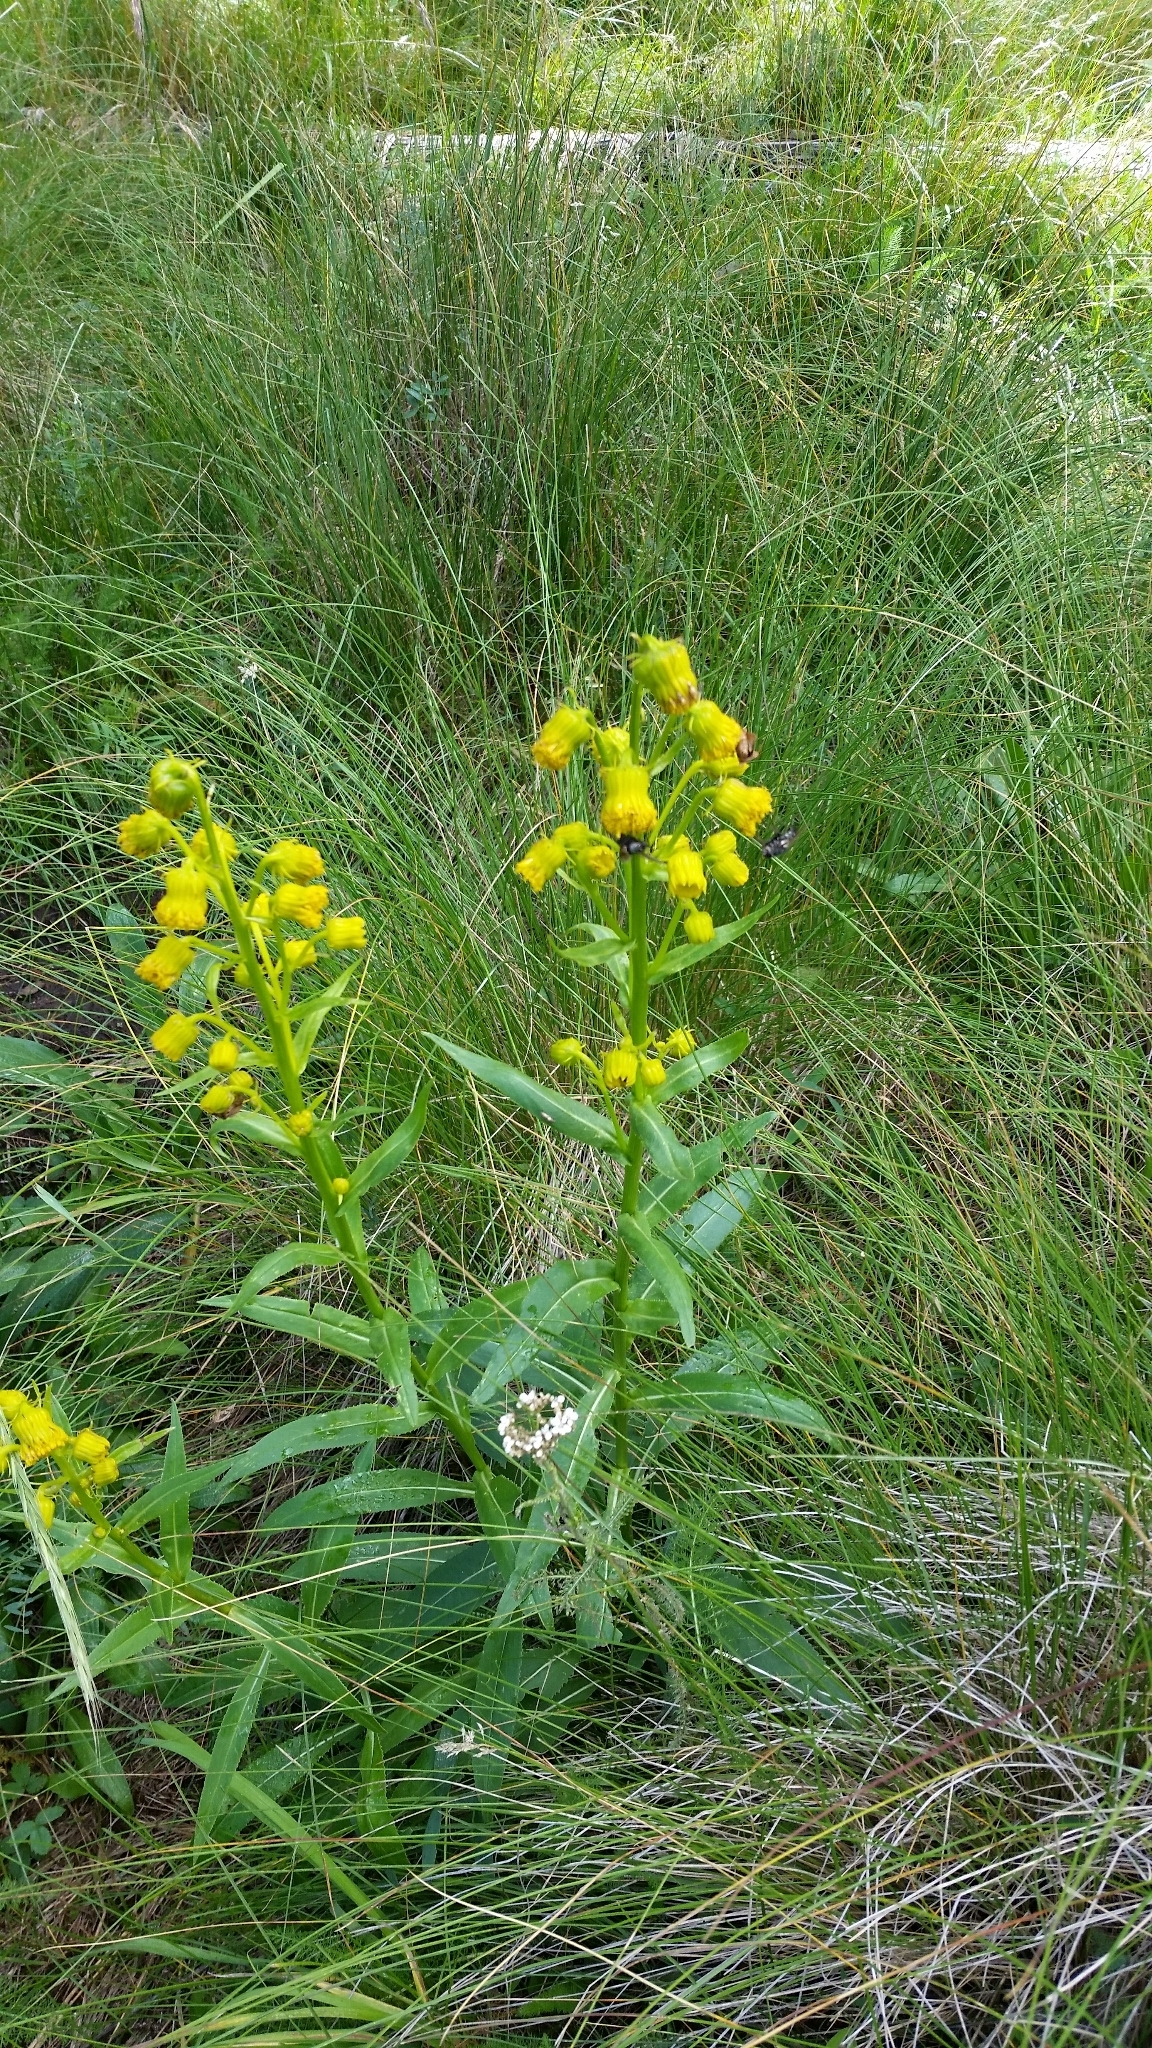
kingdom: Plantae
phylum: Tracheophyta
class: Magnoliopsida
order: Asterales
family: Asteraceae
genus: Senecio
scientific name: Senecio bigelovii
